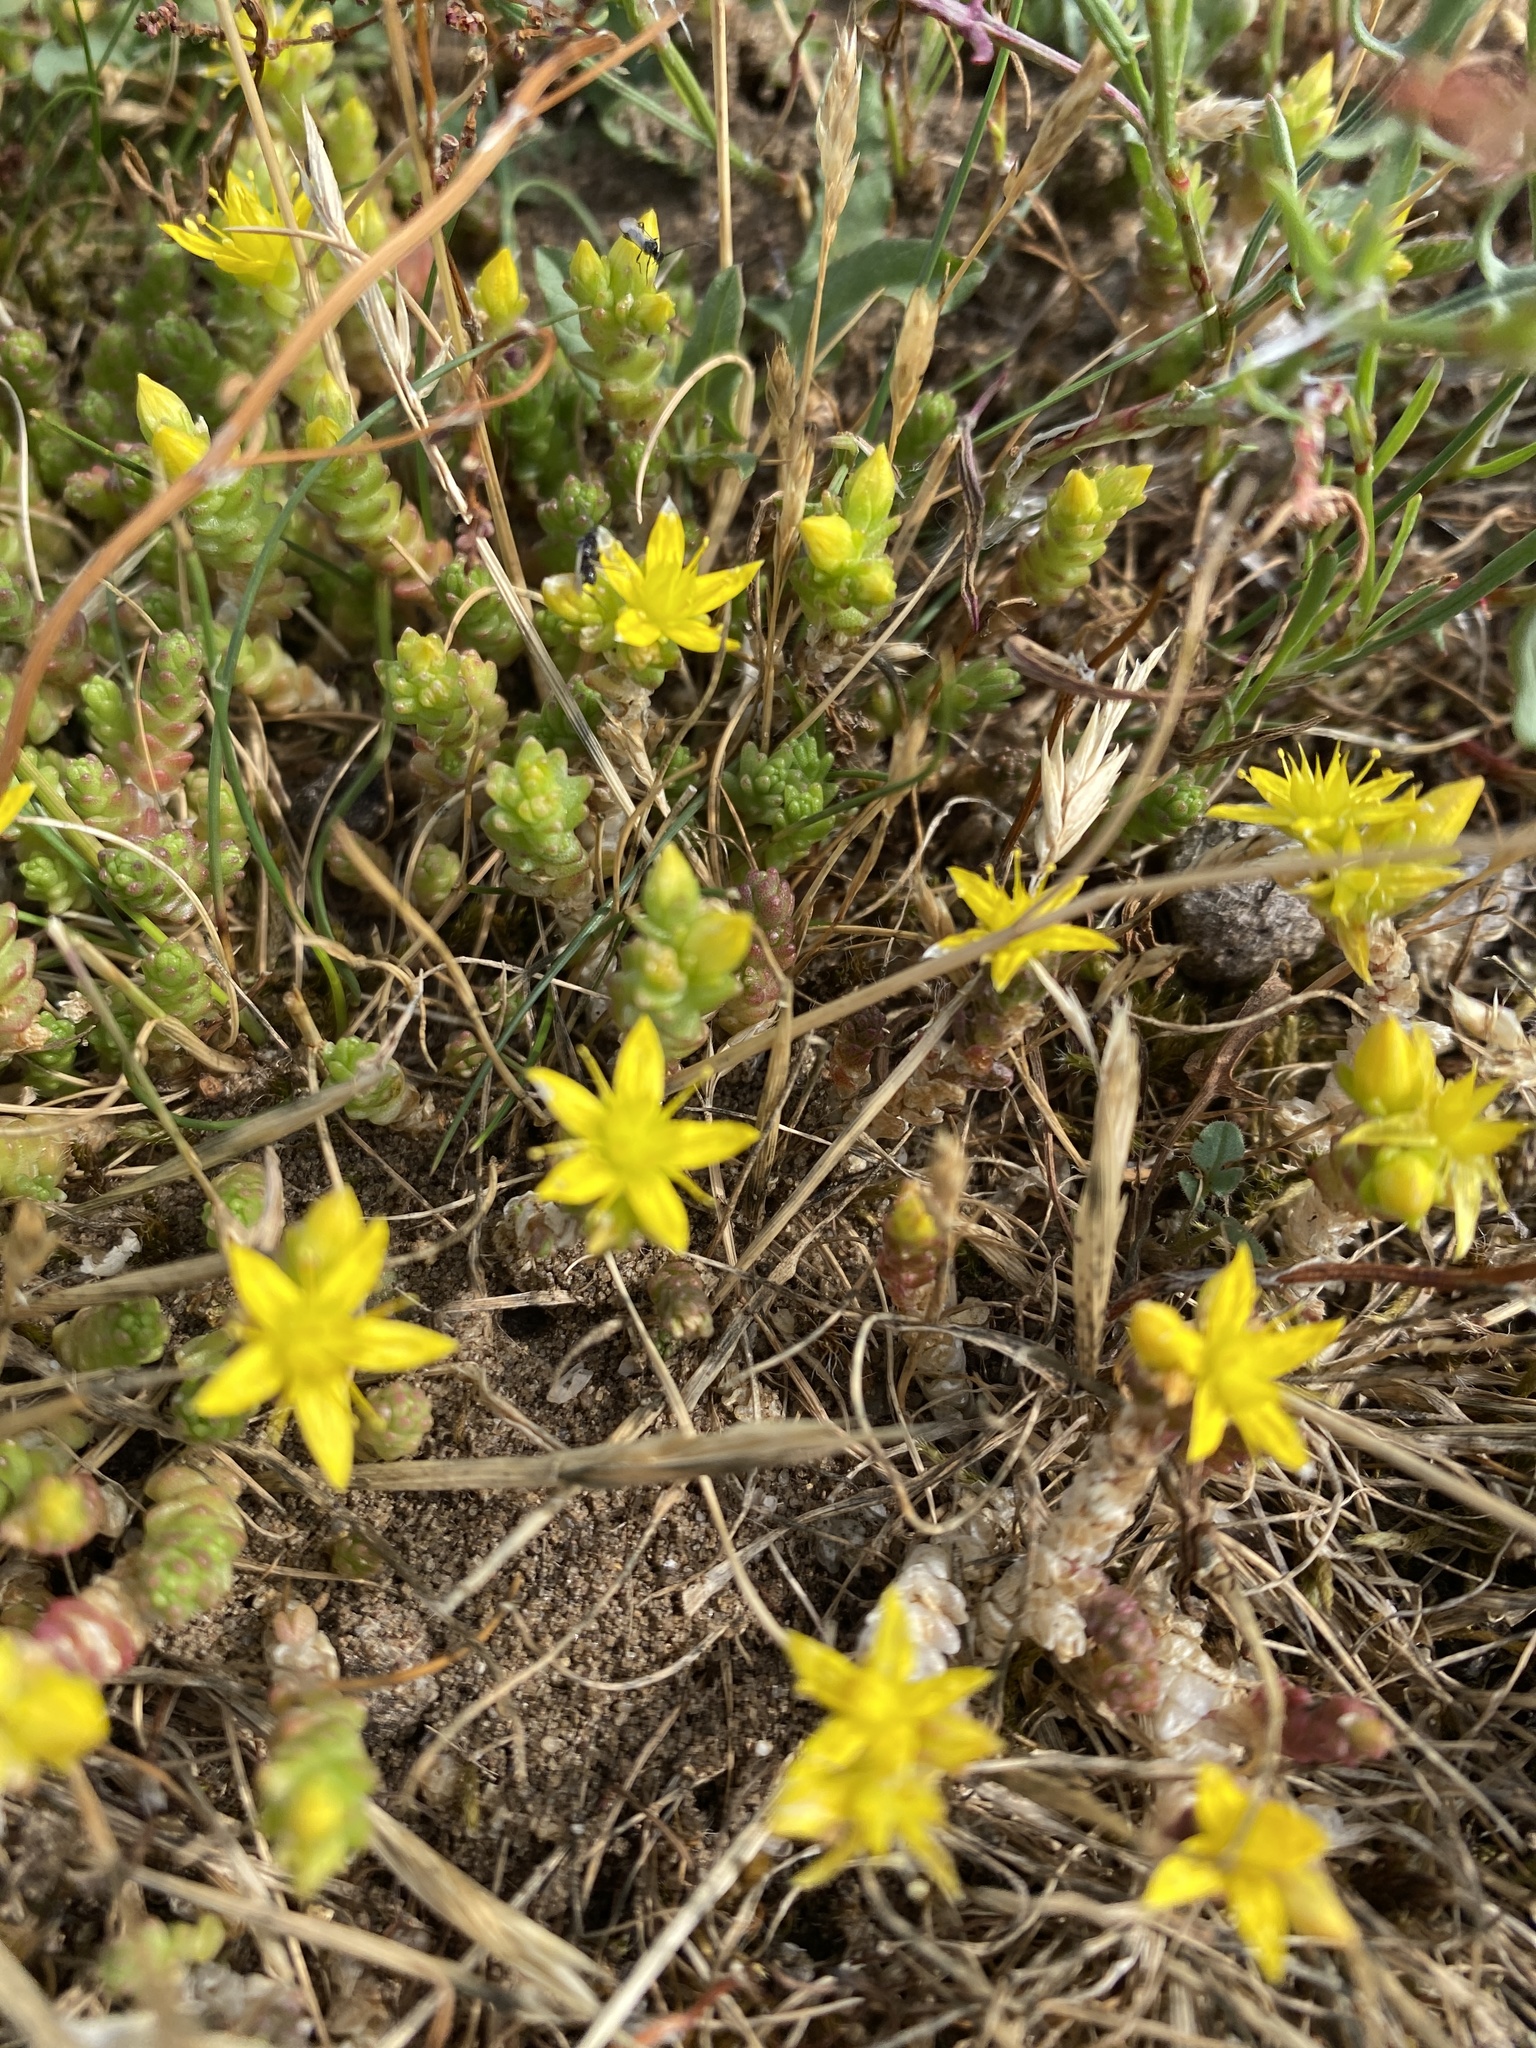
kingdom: Plantae
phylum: Tracheophyta
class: Magnoliopsida
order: Saxifragales
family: Crassulaceae
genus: Sedum
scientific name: Sedum acre
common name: Biting stonecrop
